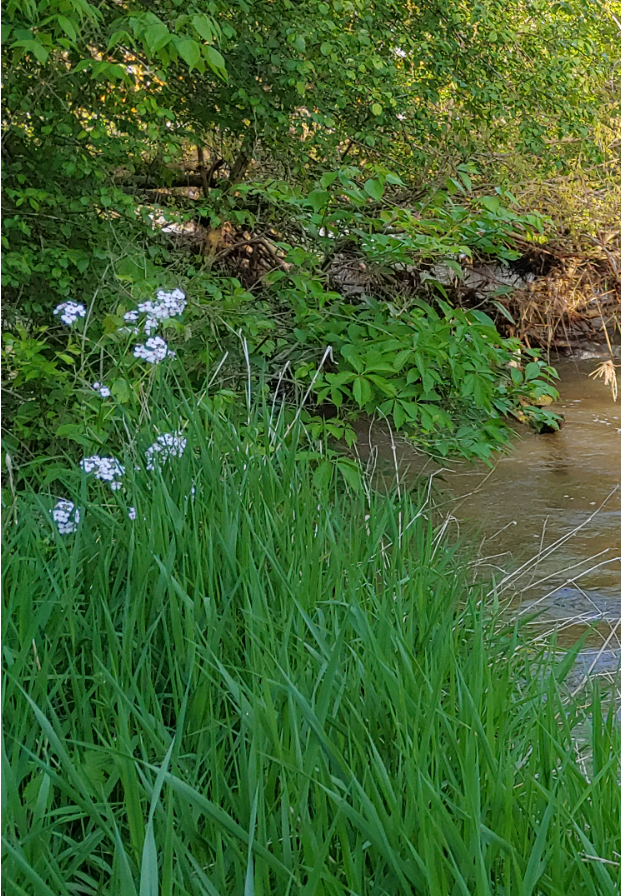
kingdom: Plantae
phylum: Tracheophyta
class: Magnoliopsida
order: Brassicales
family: Brassicaceae
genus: Hesperis
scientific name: Hesperis matronalis
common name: Dame's-violet
